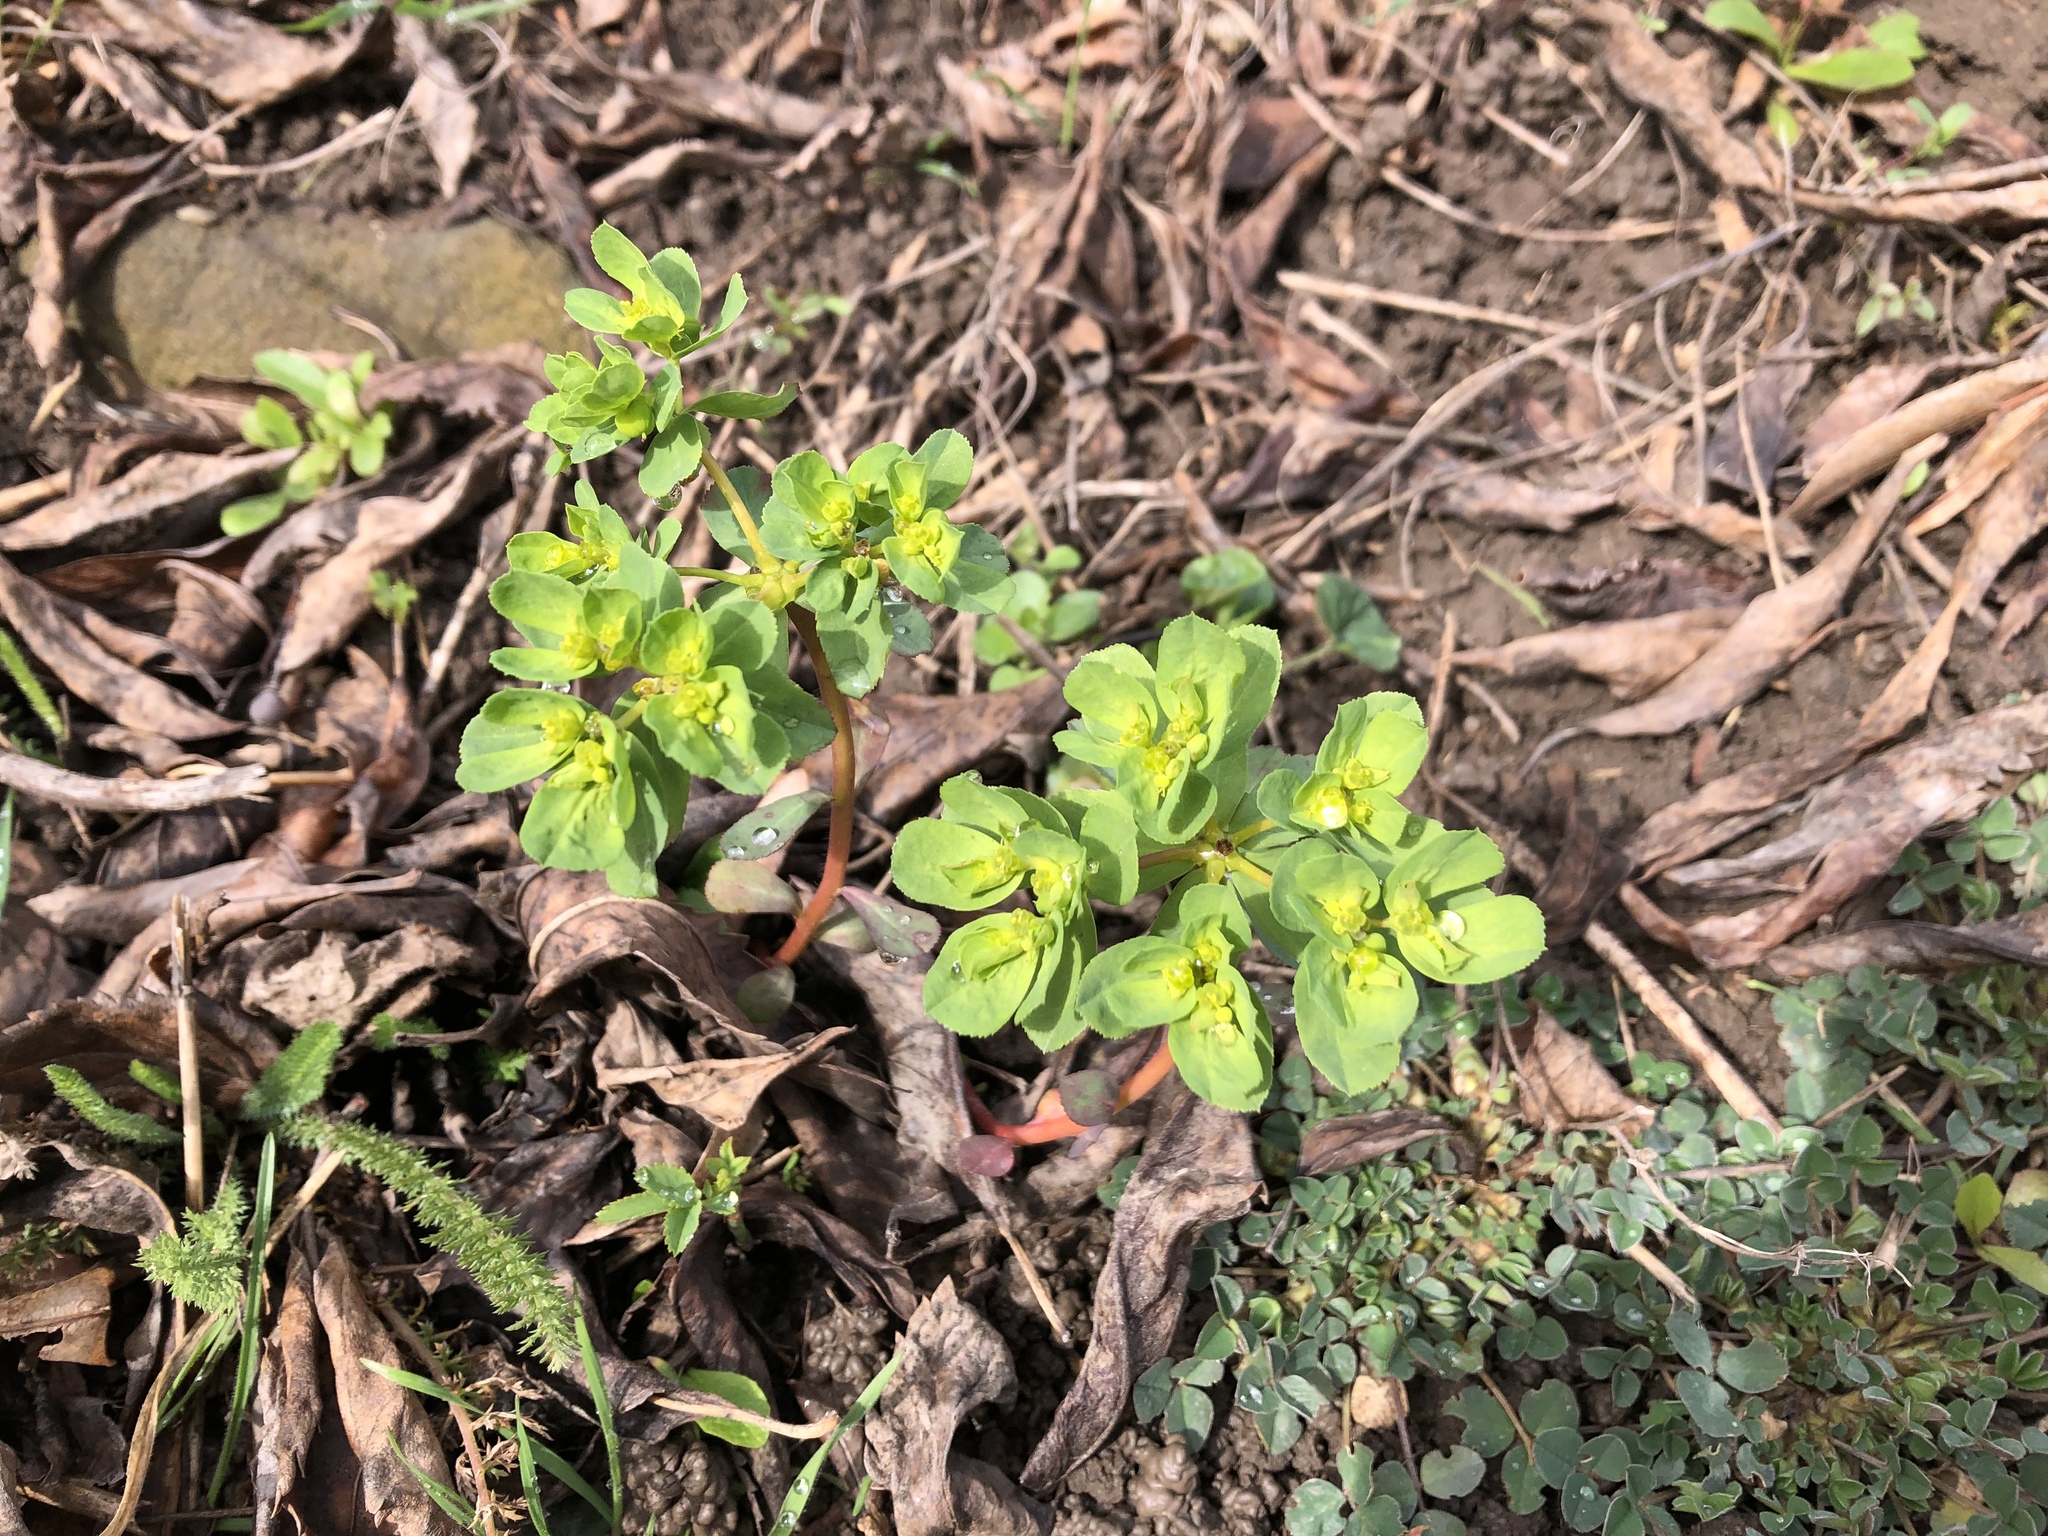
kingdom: Plantae
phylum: Tracheophyta
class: Magnoliopsida
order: Malpighiales
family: Euphorbiaceae
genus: Euphorbia
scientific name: Euphorbia helioscopia
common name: Sun spurge
